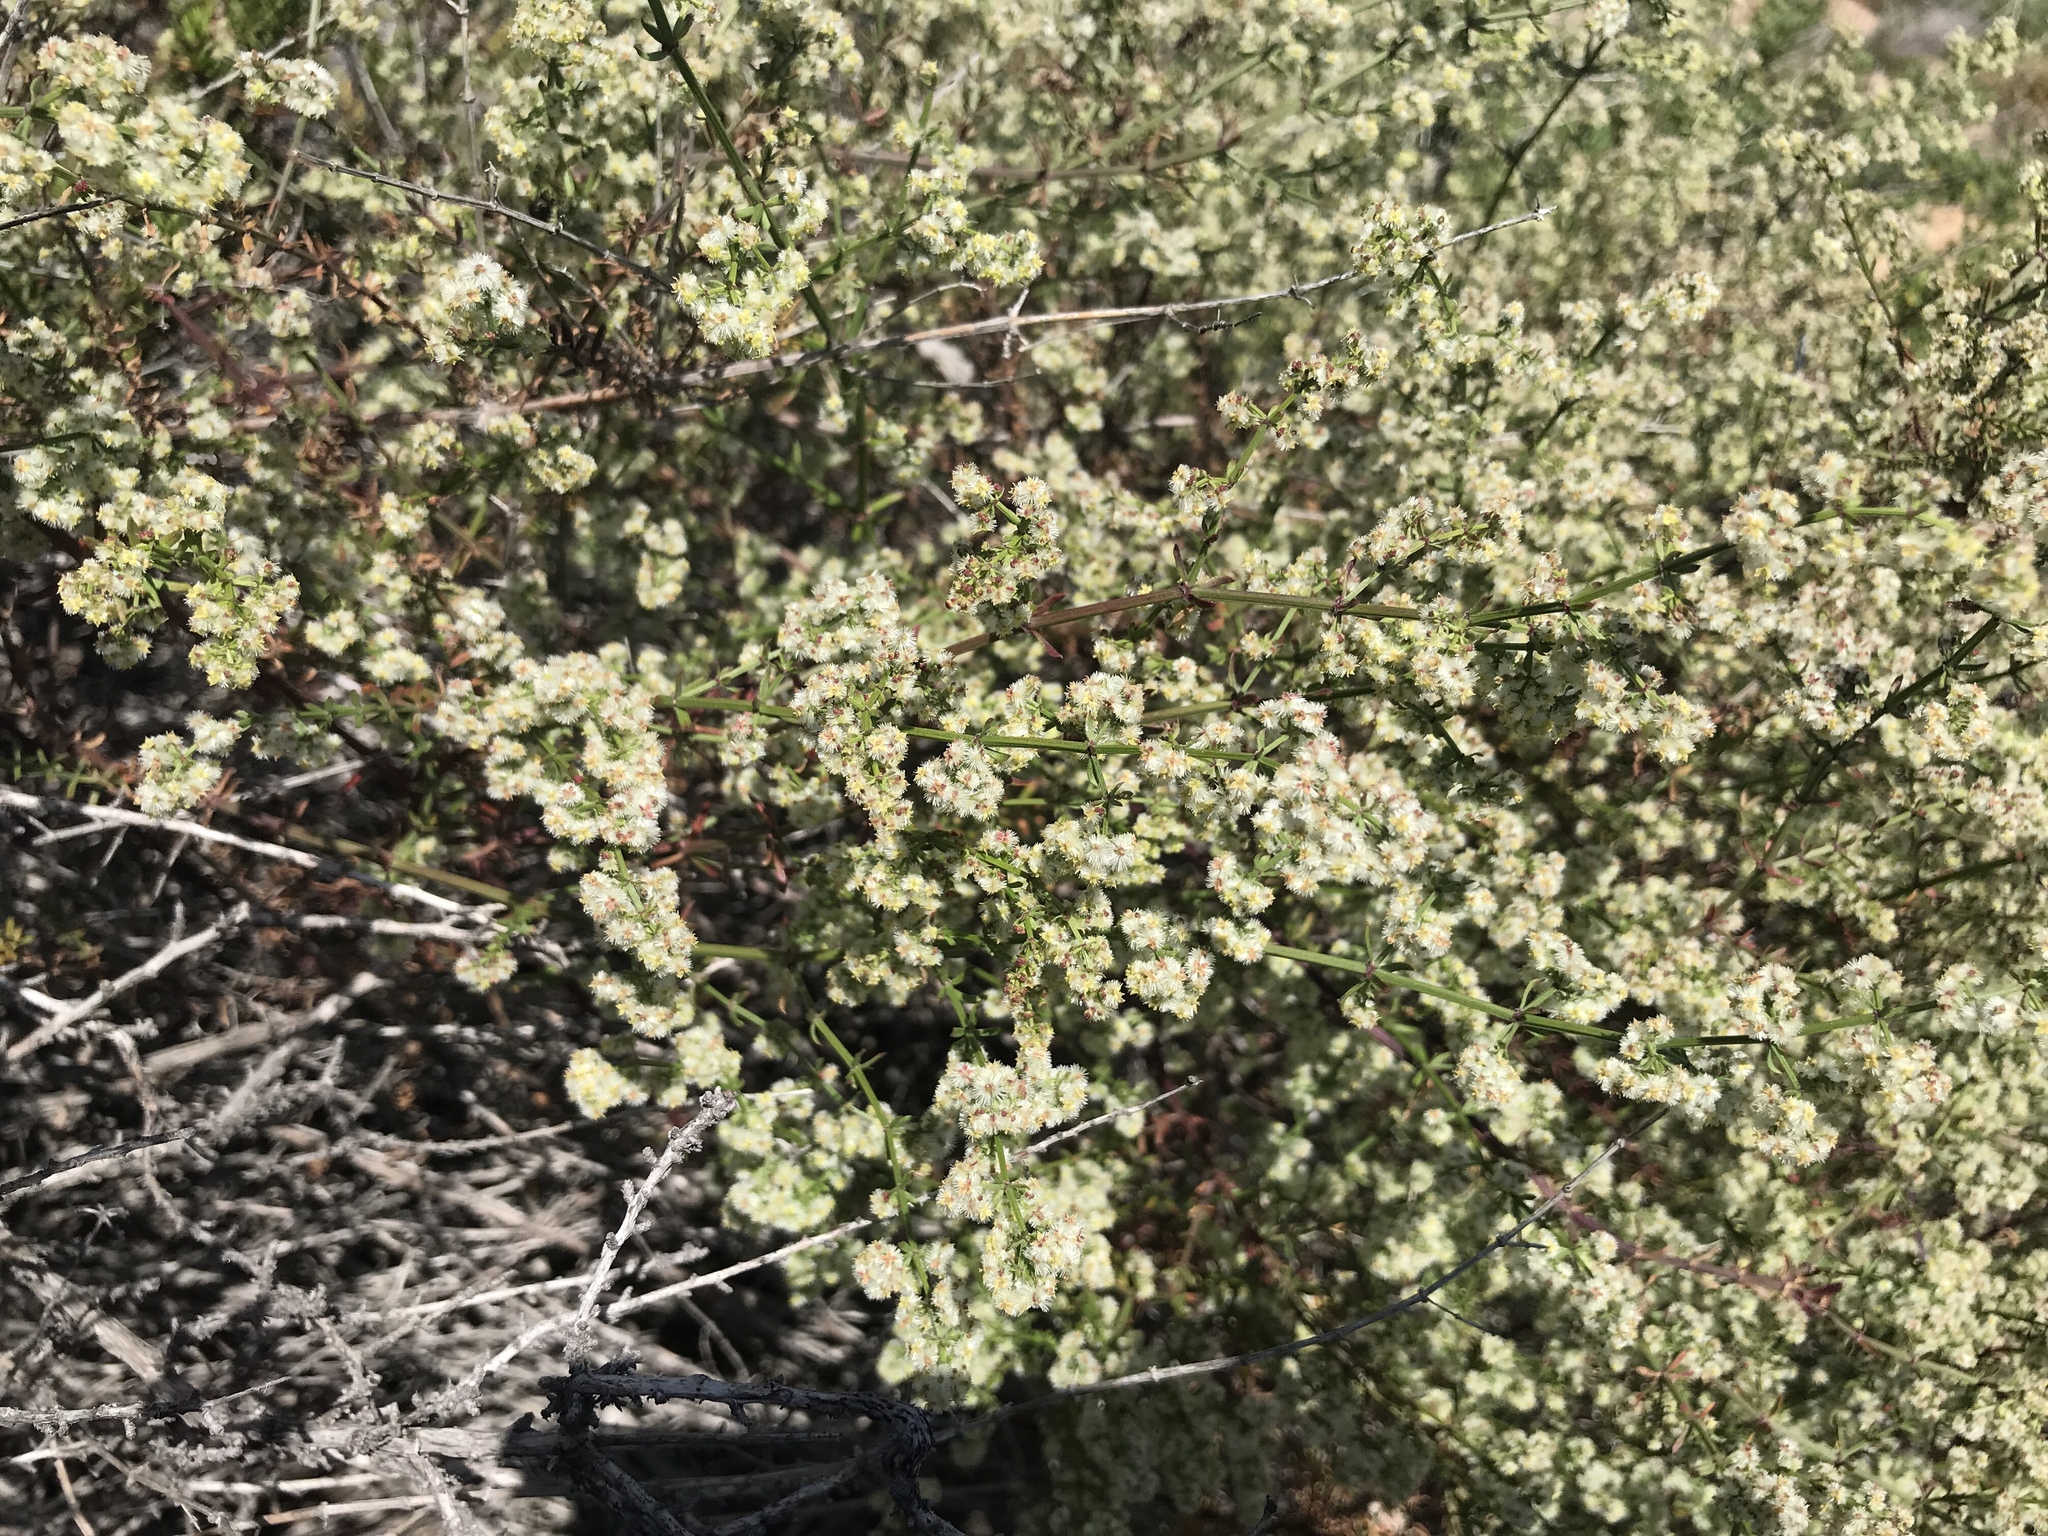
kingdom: Plantae
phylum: Tracheophyta
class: Magnoliopsida
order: Gentianales
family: Rubiaceae
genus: Galium
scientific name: Galium angustifolium
